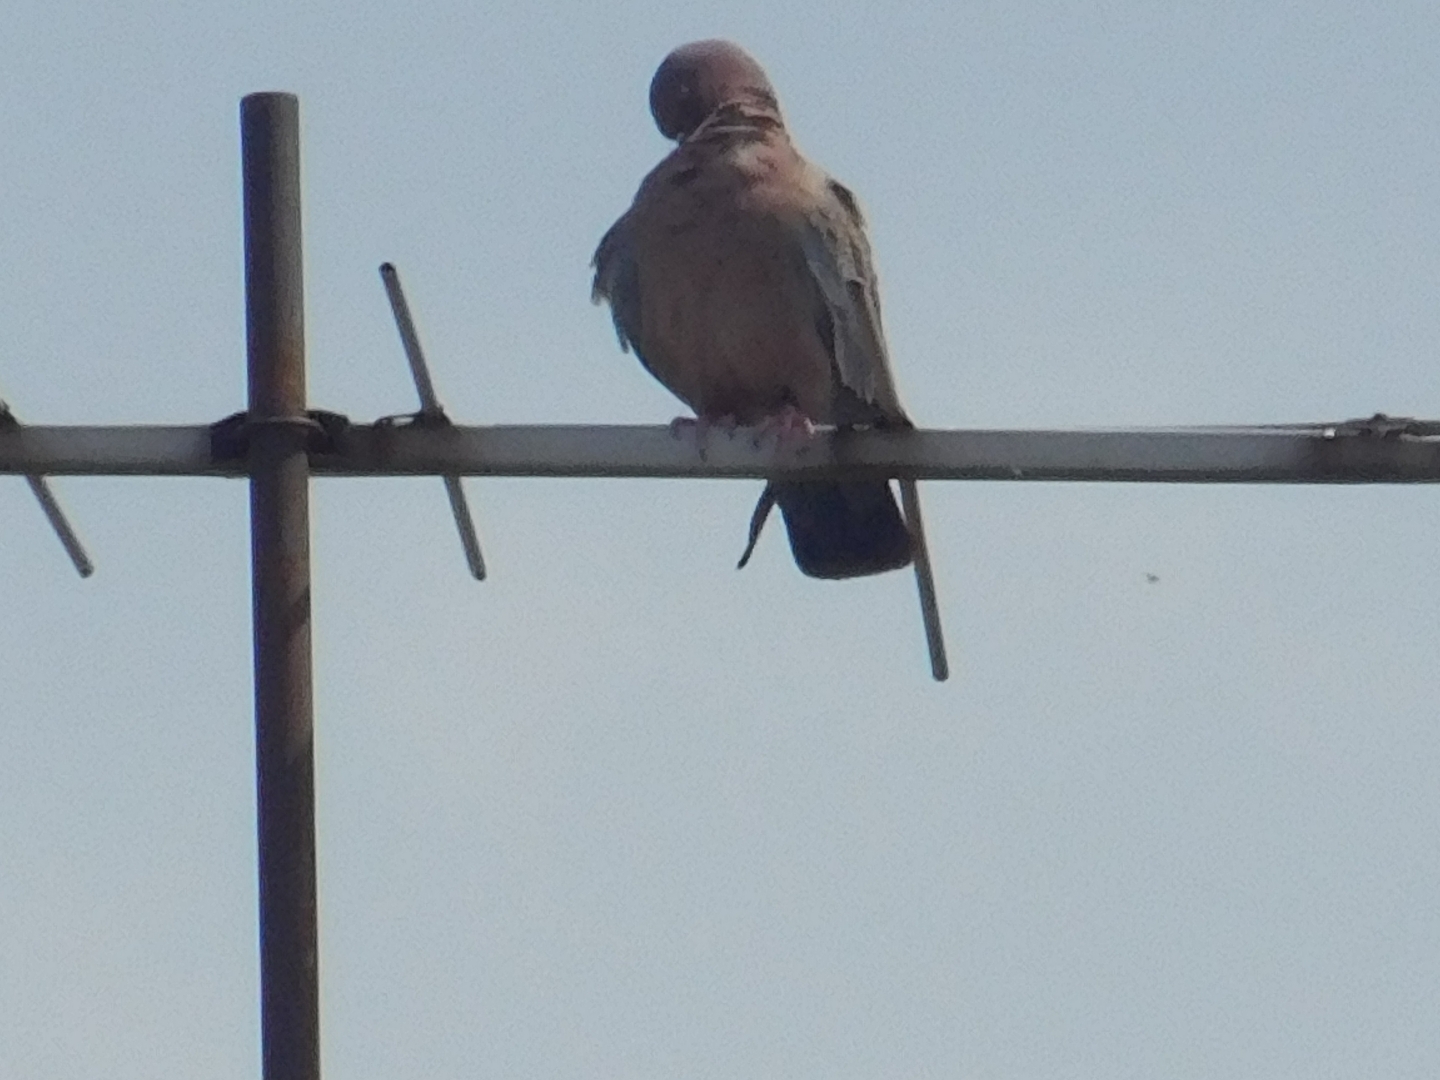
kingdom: Animalia
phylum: Chordata
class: Aves
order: Columbiformes
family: Columbidae
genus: Patagioenas
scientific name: Patagioenas picazuro
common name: Picazuro pigeon
